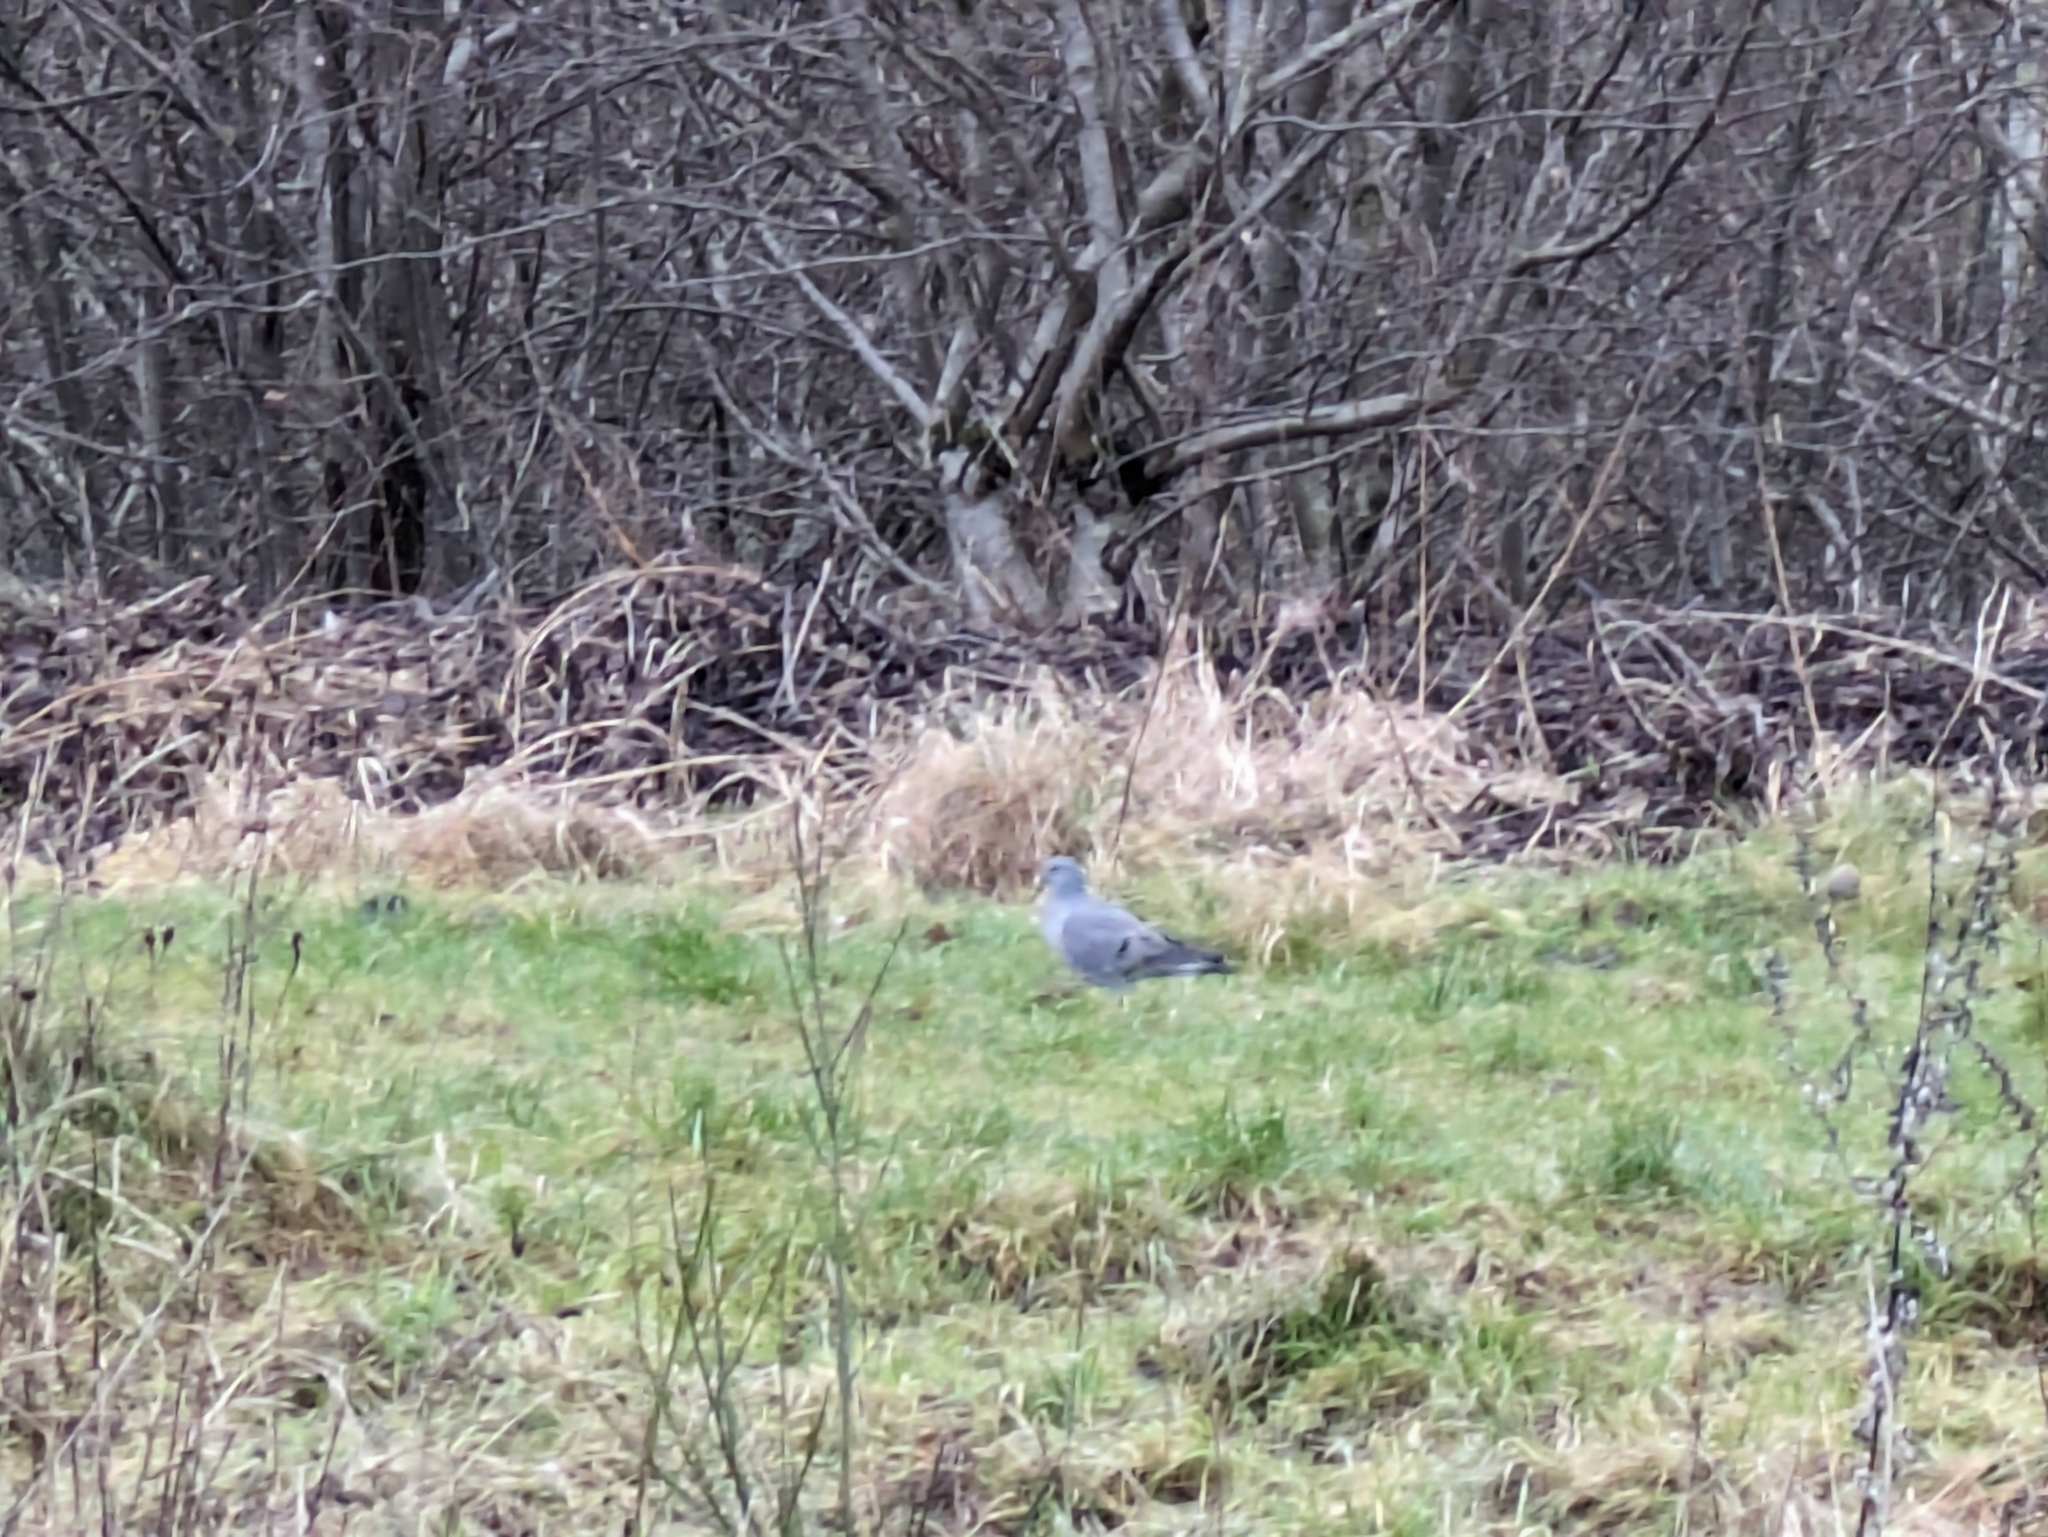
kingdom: Animalia
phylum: Chordata
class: Aves
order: Columbiformes
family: Columbidae
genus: Columba
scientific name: Columba oenas
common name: Stock dove
